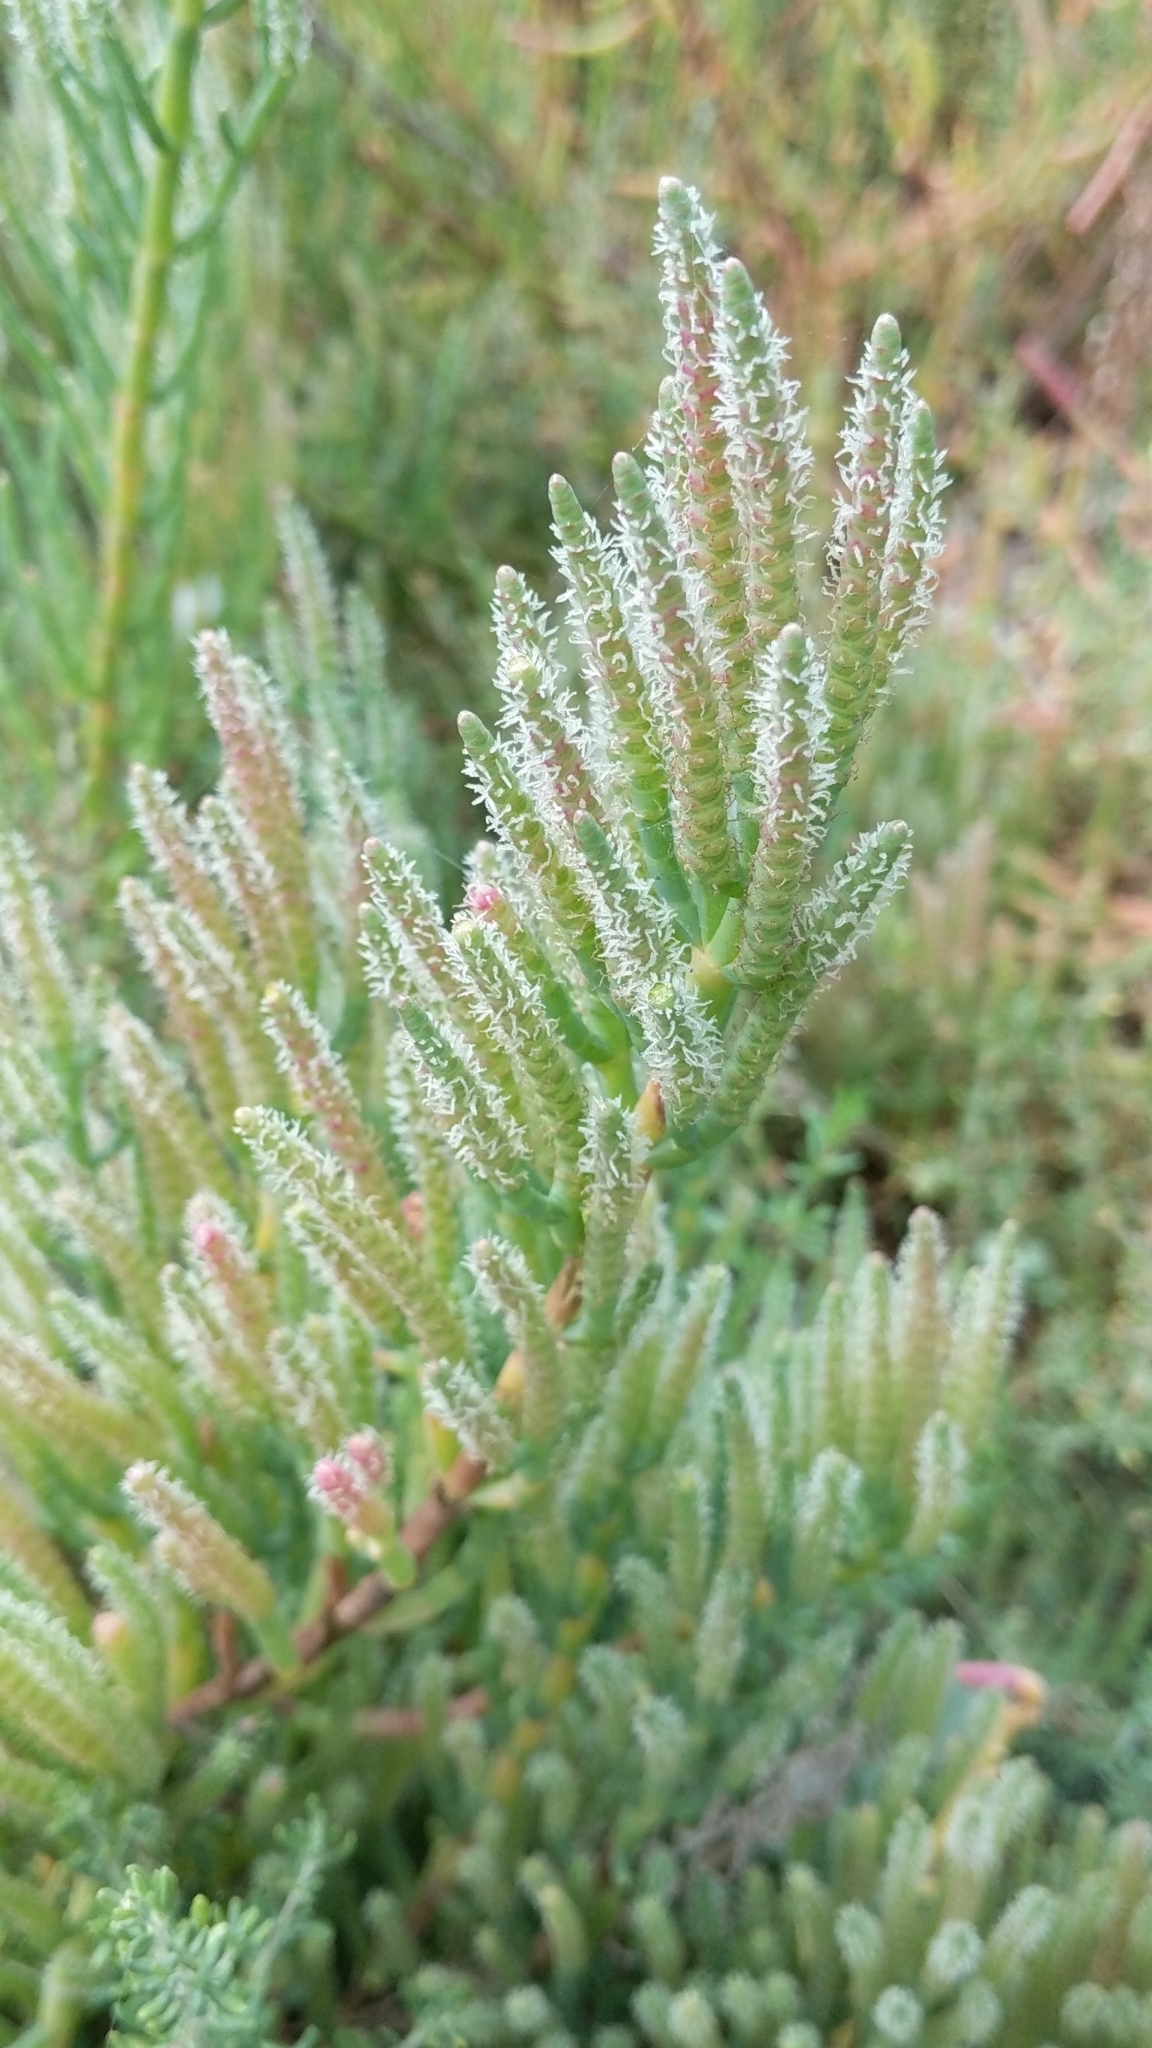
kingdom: Plantae
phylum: Tracheophyta
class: Magnoliopsida
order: Caryophyllales
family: Amaranthaceae
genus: Salicornia
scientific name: Salicornia pacifica
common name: Pacific glasswort
